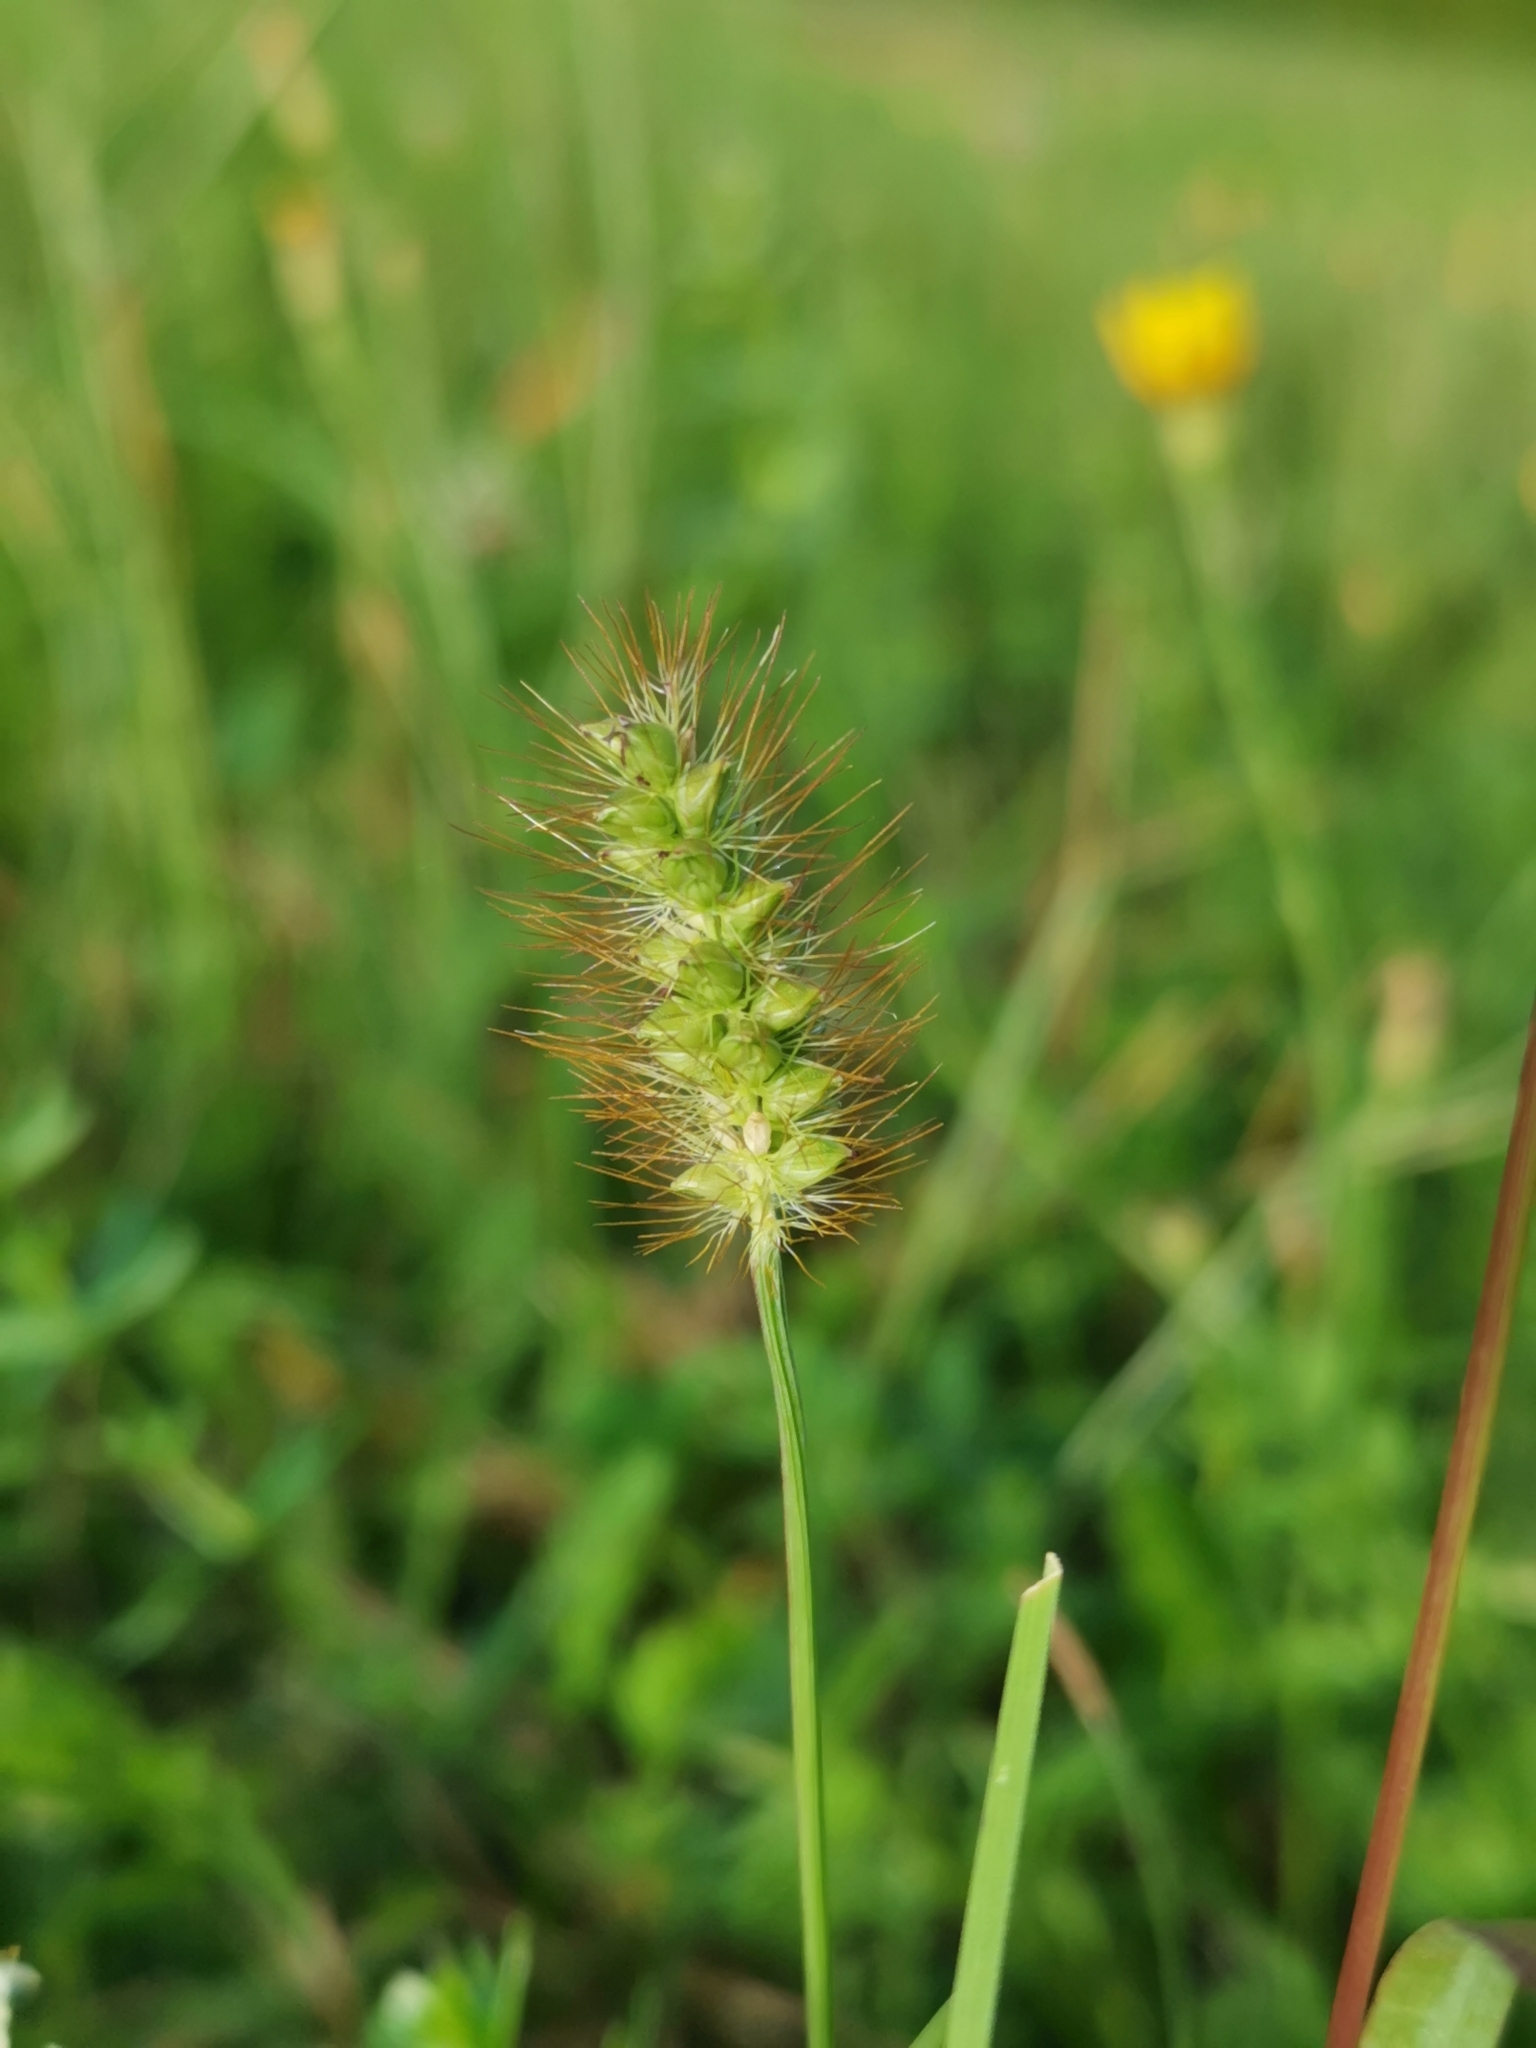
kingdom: Plantae
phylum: Tracheophyta
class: Liliopsida
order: Poales
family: Poaceae
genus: Setaria
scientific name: Setaria pumila
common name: Yellow bristle-grass
